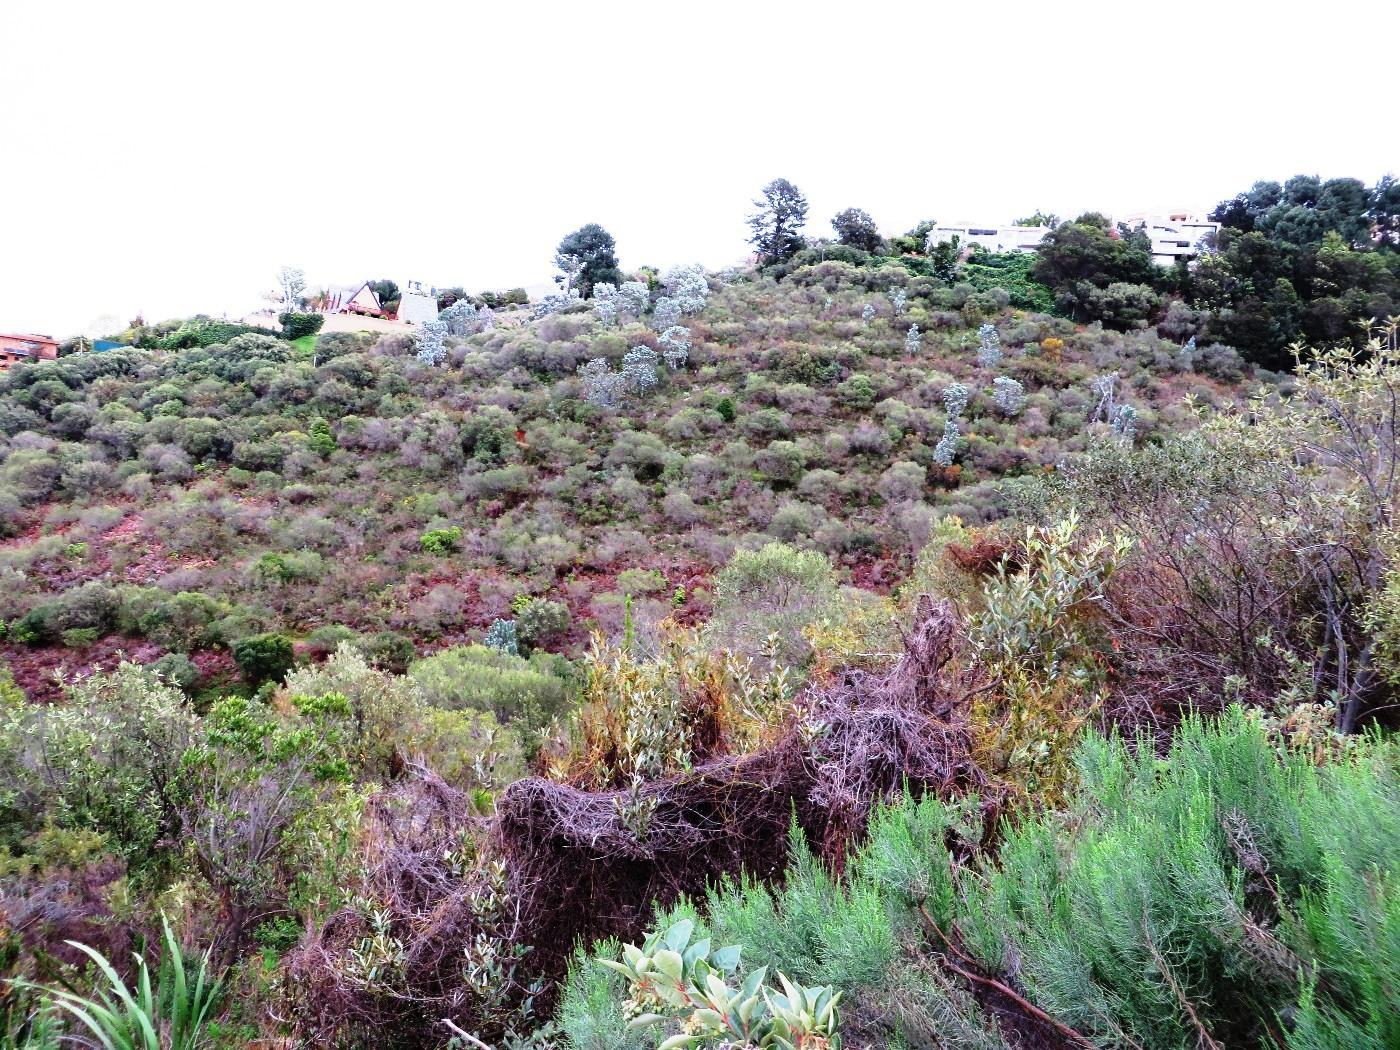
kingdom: Plantae
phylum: Tracheophyta
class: Magnoliopsida
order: Proteales
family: Proteaceae
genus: Leucadendron
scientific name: Leucadendron argenteum
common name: Cape silver tree
